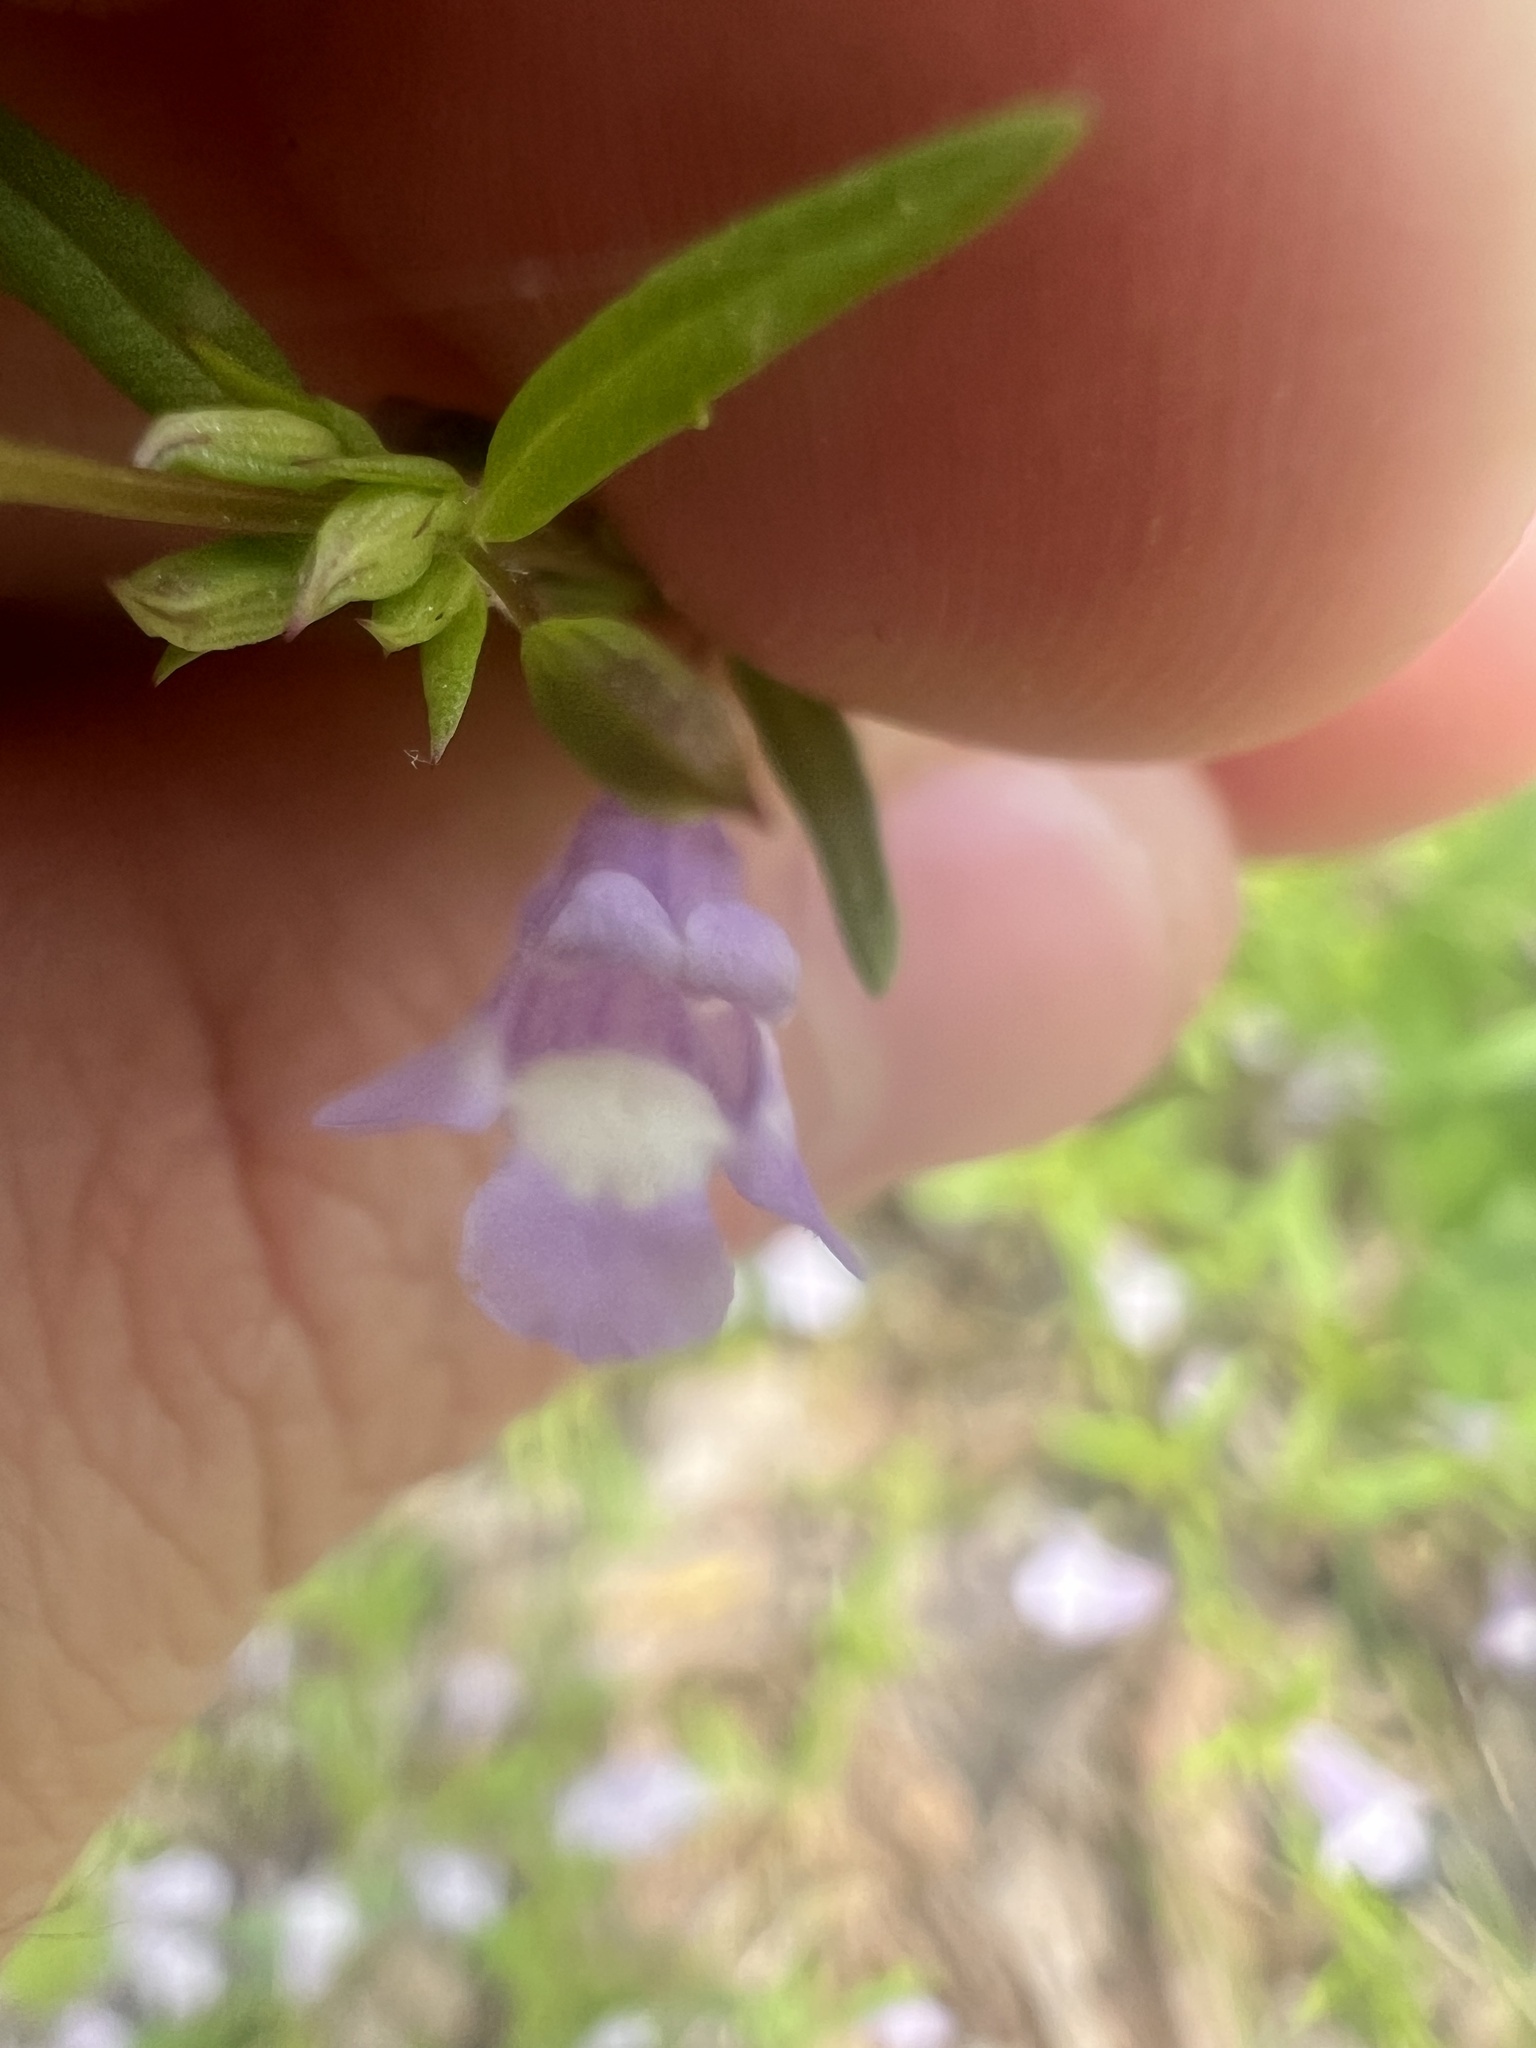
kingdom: Plantae
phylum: Tracheophyta
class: Magnoliopsida
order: Lamiales
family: Lamiaceae
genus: Clinopodium
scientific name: Clinopodium arkansanum
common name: Limestone calamint
